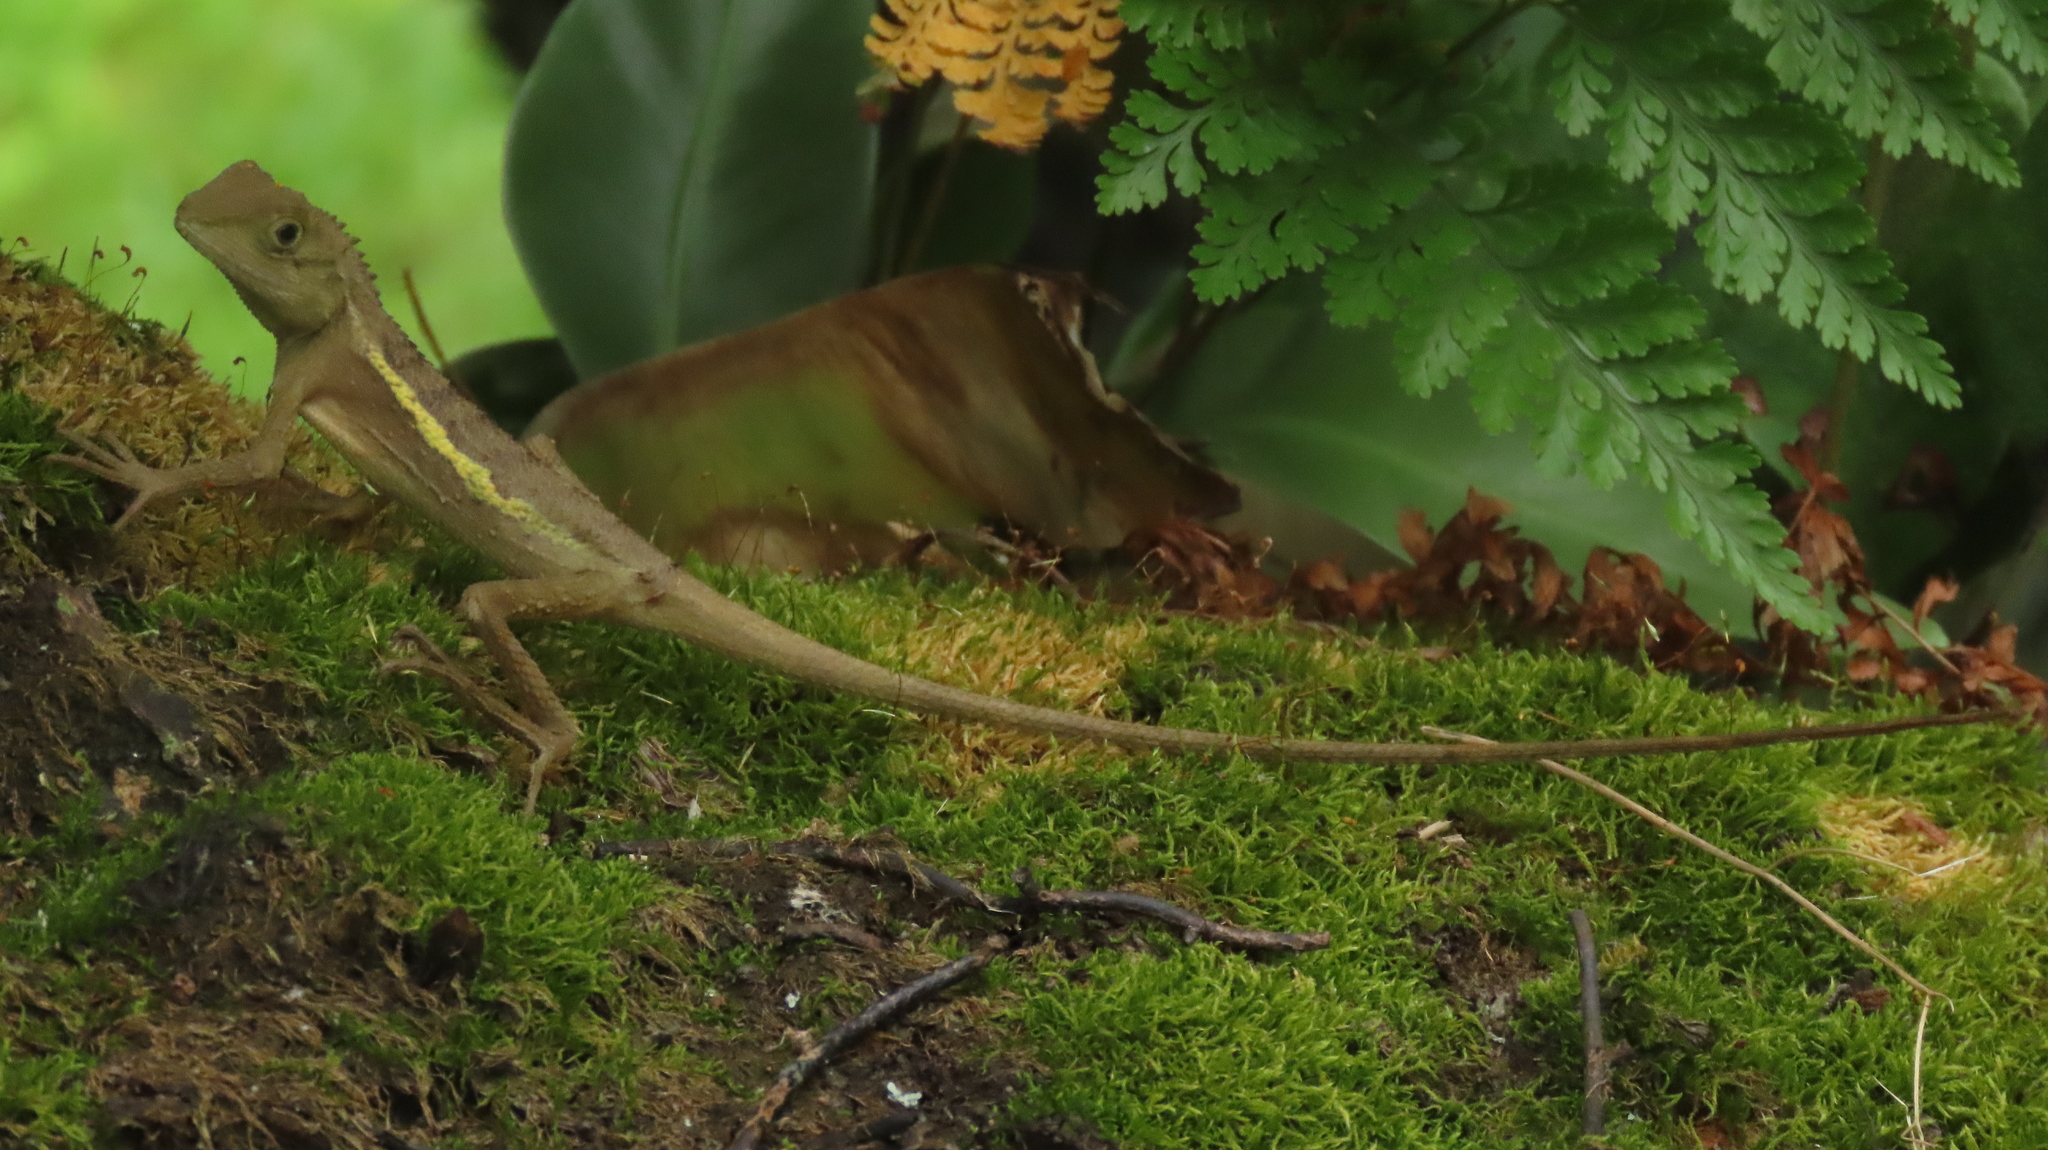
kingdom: Animalia
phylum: Chordata
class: Squamata
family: Agamidae
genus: Diploderma
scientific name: Diploderma swinhonis
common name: Taiwan japalure
